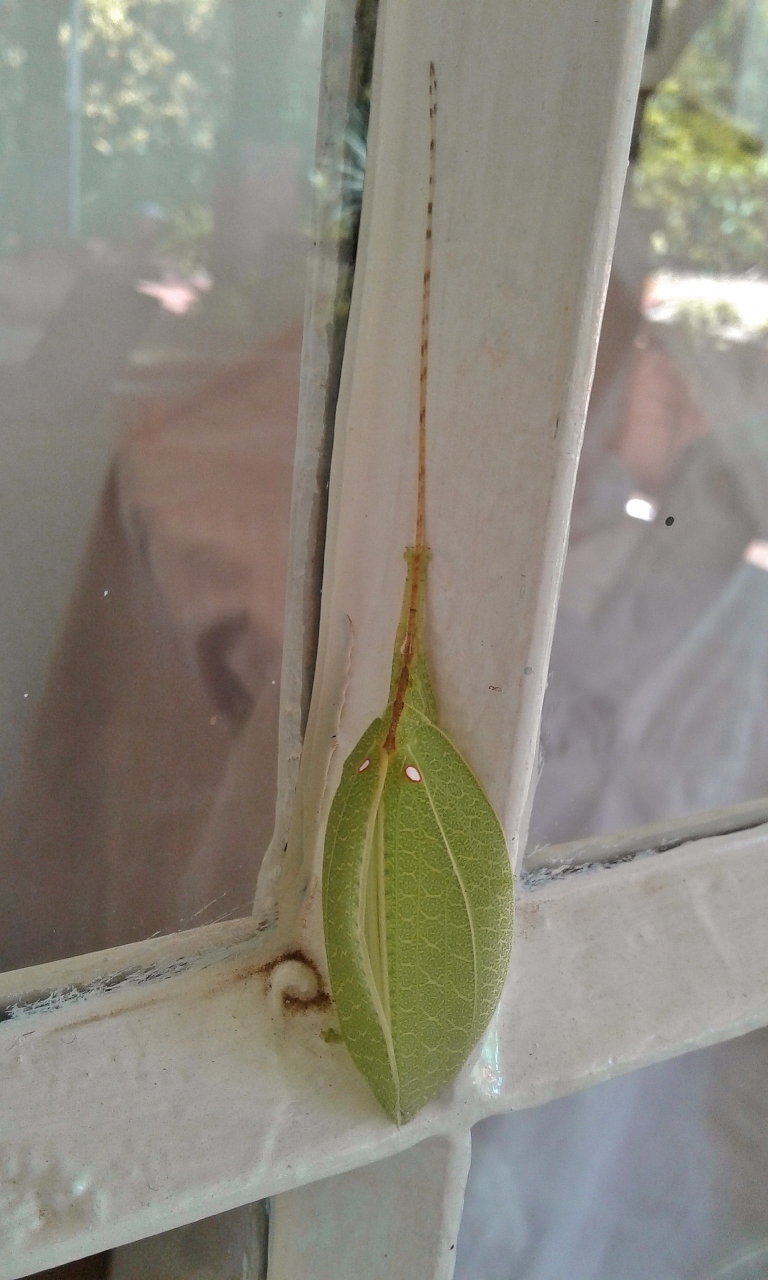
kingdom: Animalia
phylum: Arthropoda
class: Insecta
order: Orthoptera
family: Tettigoniidae
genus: Acauloplax
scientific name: Acauloplax exigua
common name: Elegant sylvan katydid
